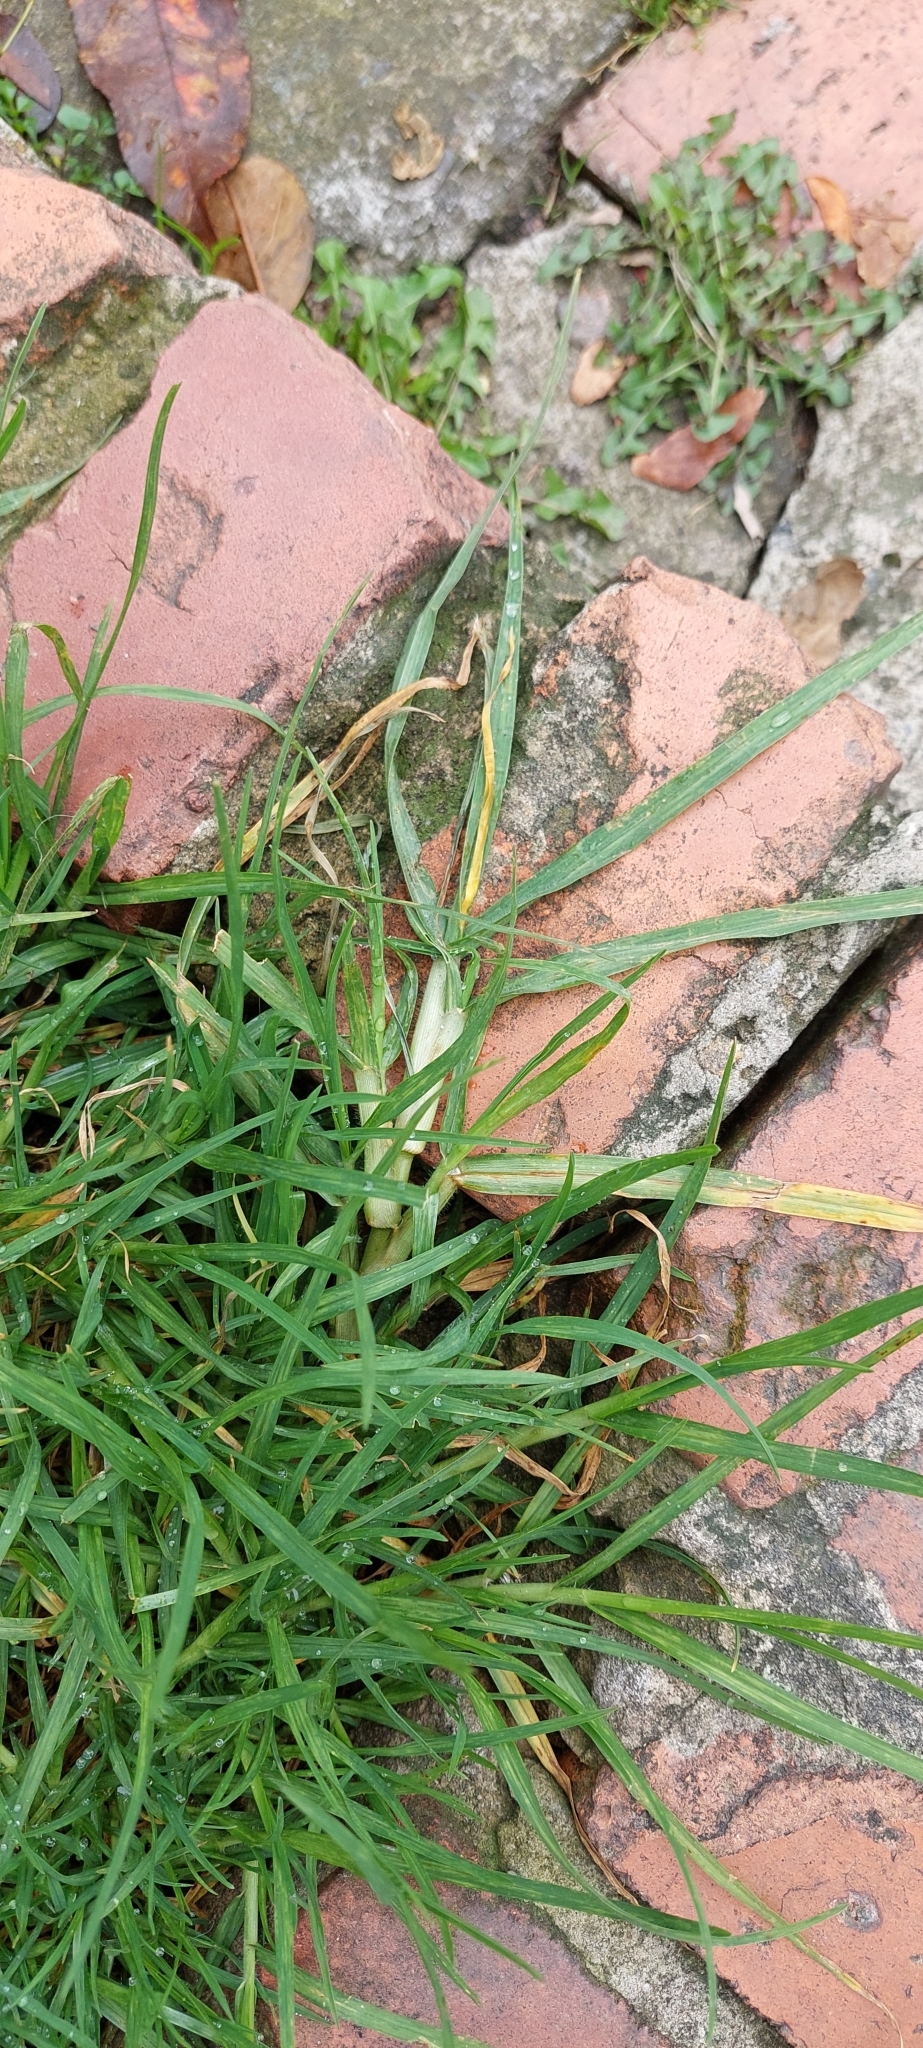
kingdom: Plantae
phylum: Tracheophyta
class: Liliopsida
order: Poales
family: Poaceae
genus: Cenchrus
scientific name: Cenchrus clandestinus
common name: Kikuyugrass
